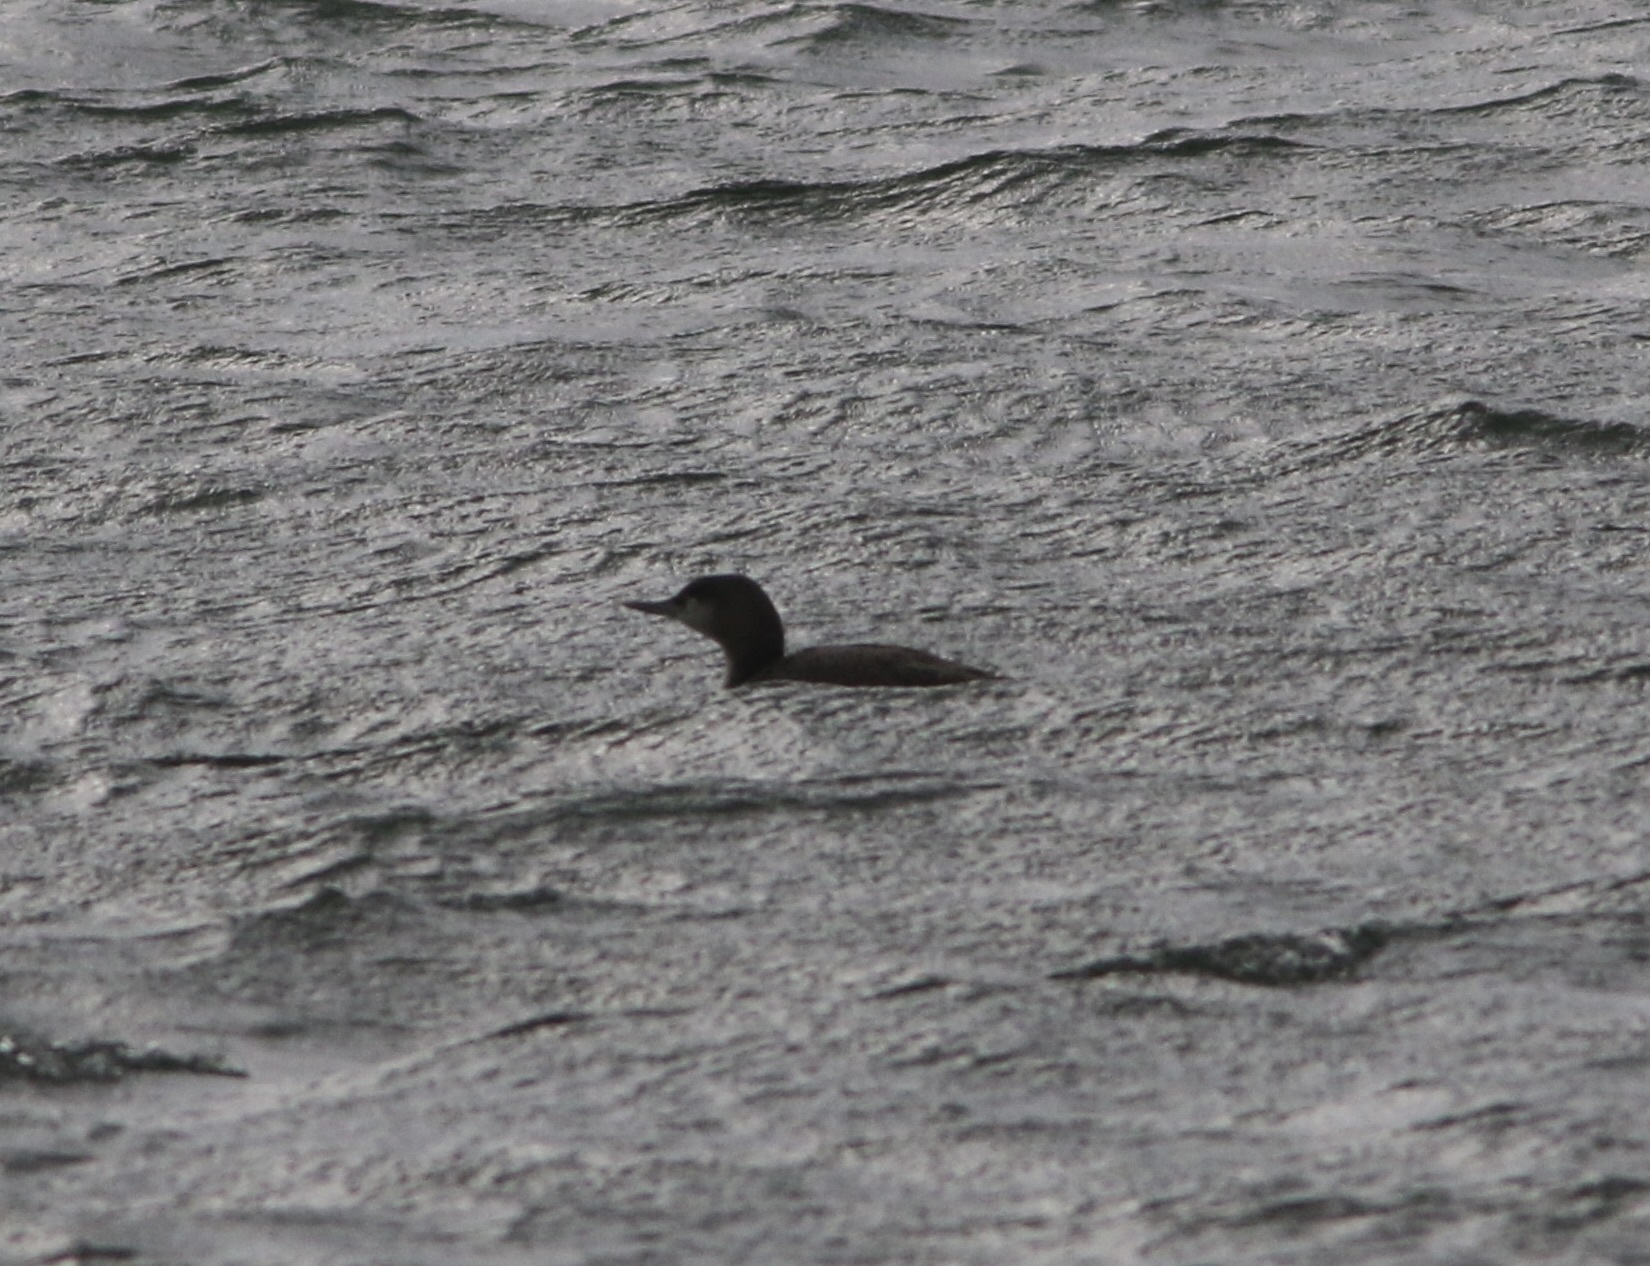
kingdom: Animalia
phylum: Chordata
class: Aves
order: Gaviiformes
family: Gaviidae
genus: Gavia
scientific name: Gavia stellata
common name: Red-throated loon
